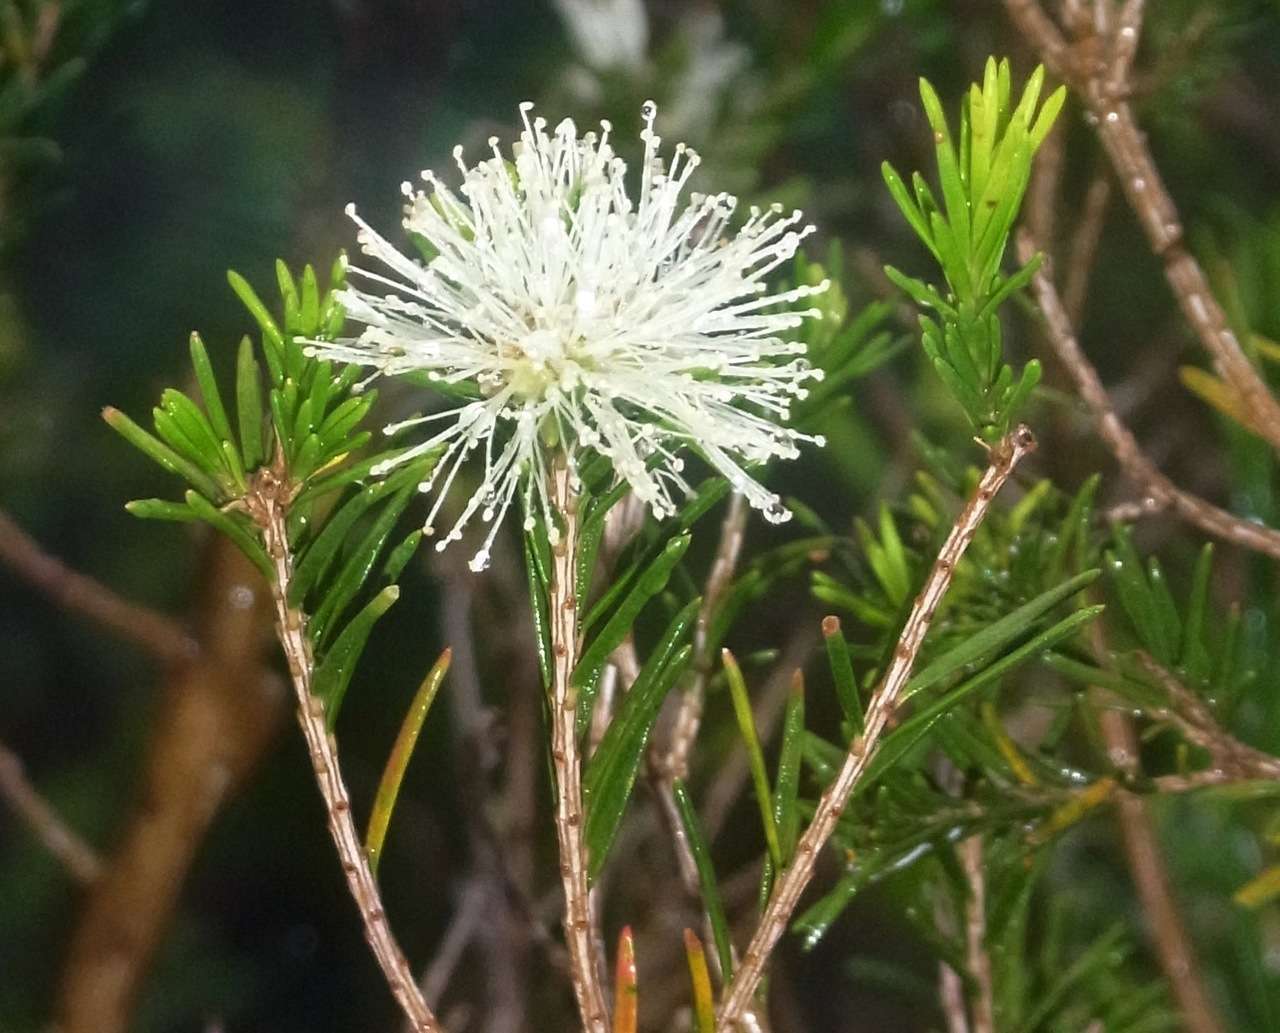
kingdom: Plantae
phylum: Tracheophyta
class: Magnoliopsida
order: Myrtales
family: Myrtaceae
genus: Melaleuca
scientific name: Melaleuca ericifolia
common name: Paperbark teatree
